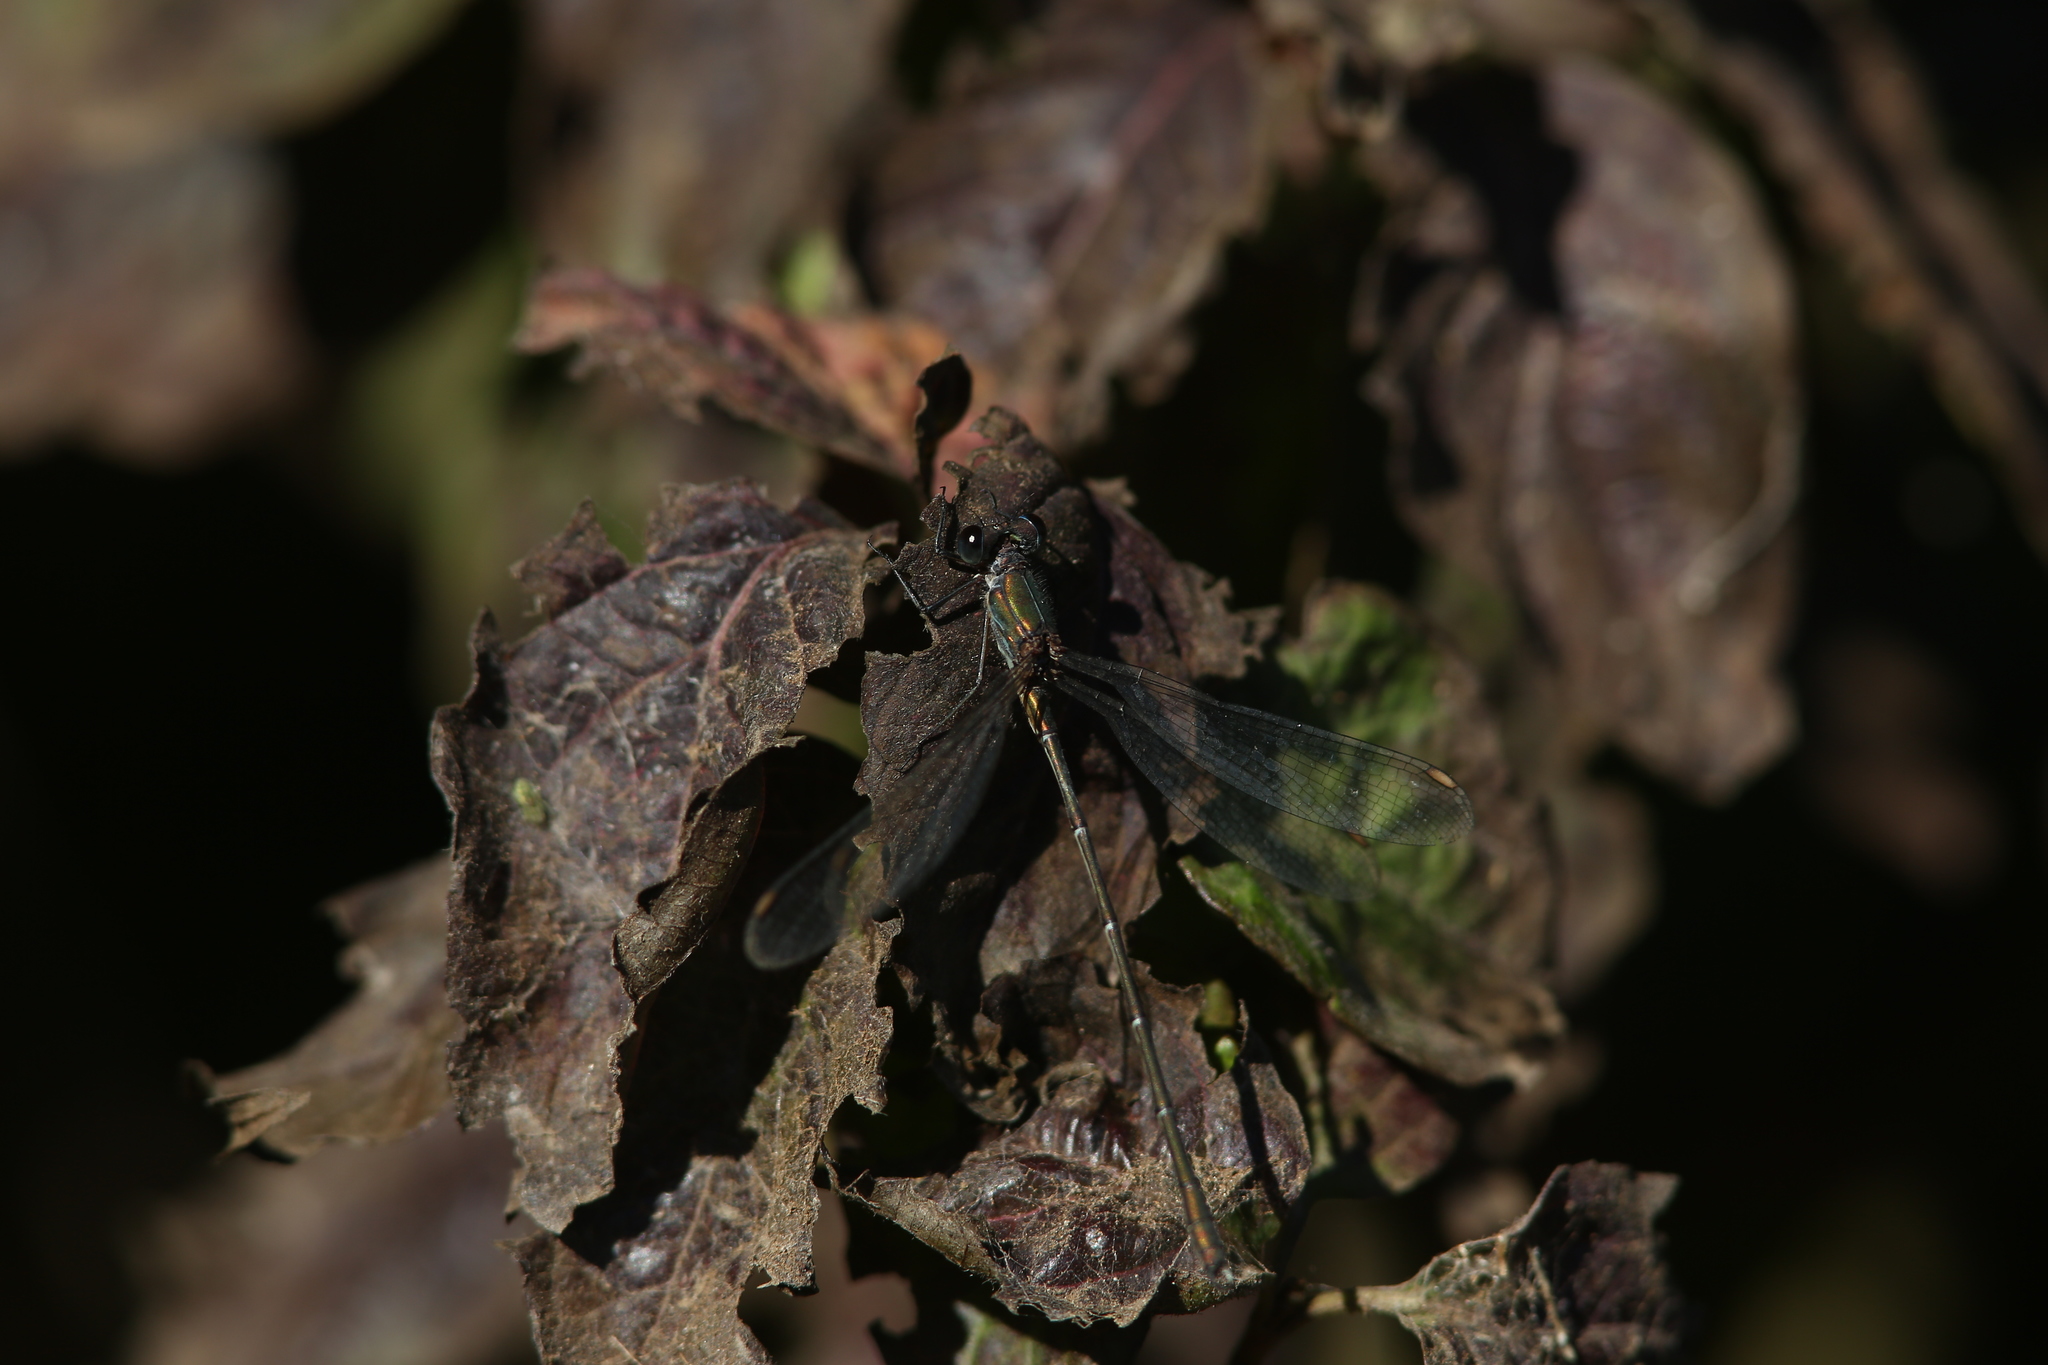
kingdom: Animalia
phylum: Arthropoda
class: Insecta
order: Odonata
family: Lestidae
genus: Chalcolestes
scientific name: Chalcolestes viridis
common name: Green emerald damselfly
